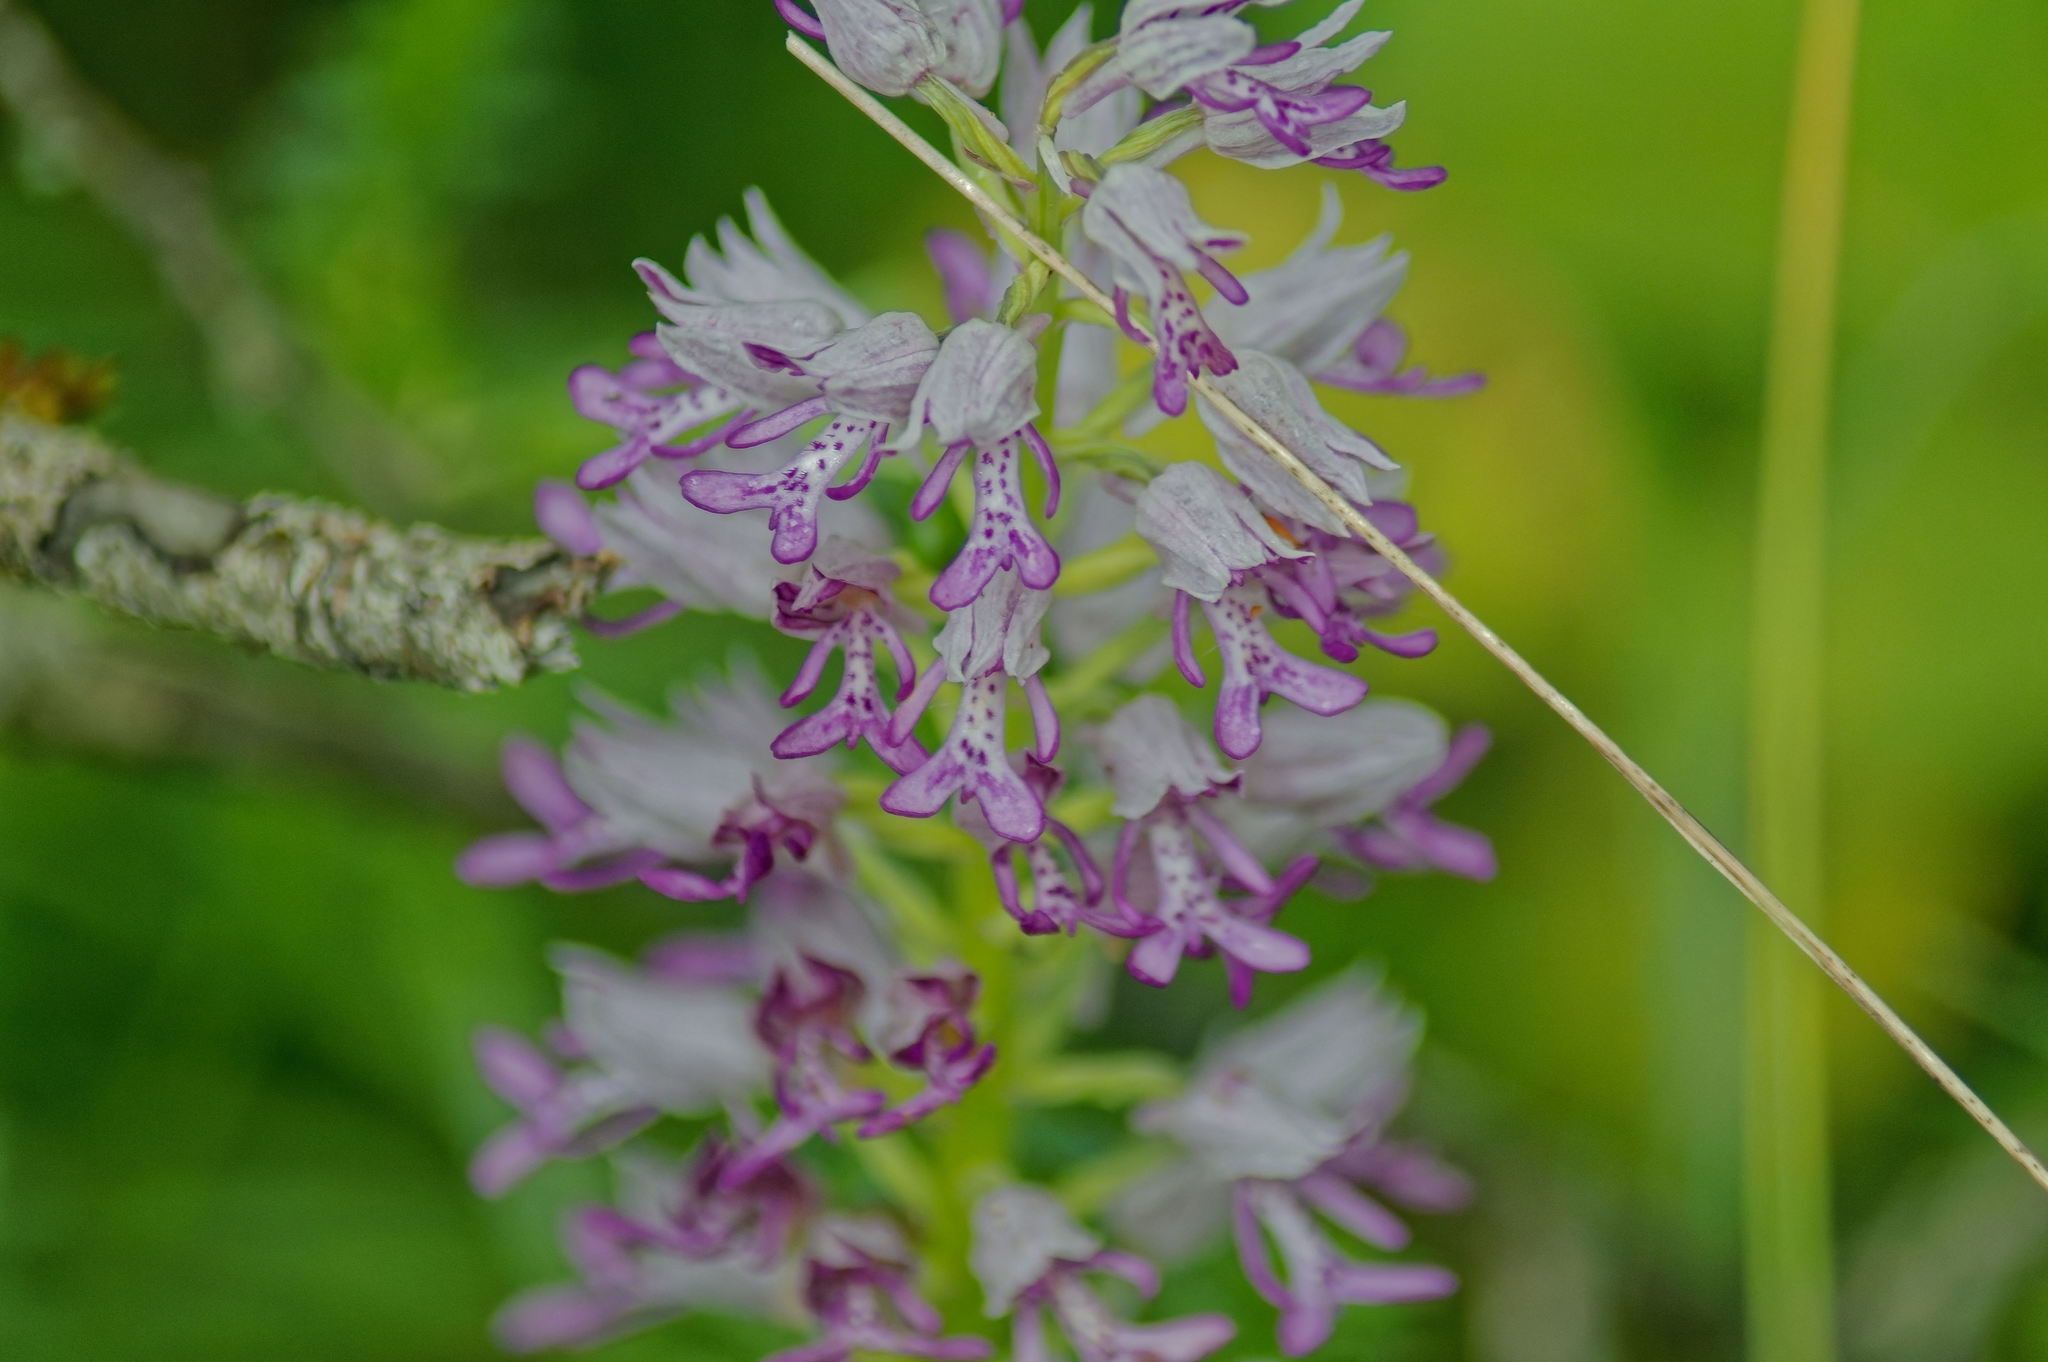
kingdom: Plantae
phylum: Tracheophyta
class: Liliopsida
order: Asparagales
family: Orchidaceae
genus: Orchis
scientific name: Orchis militaris
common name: Military orchid
